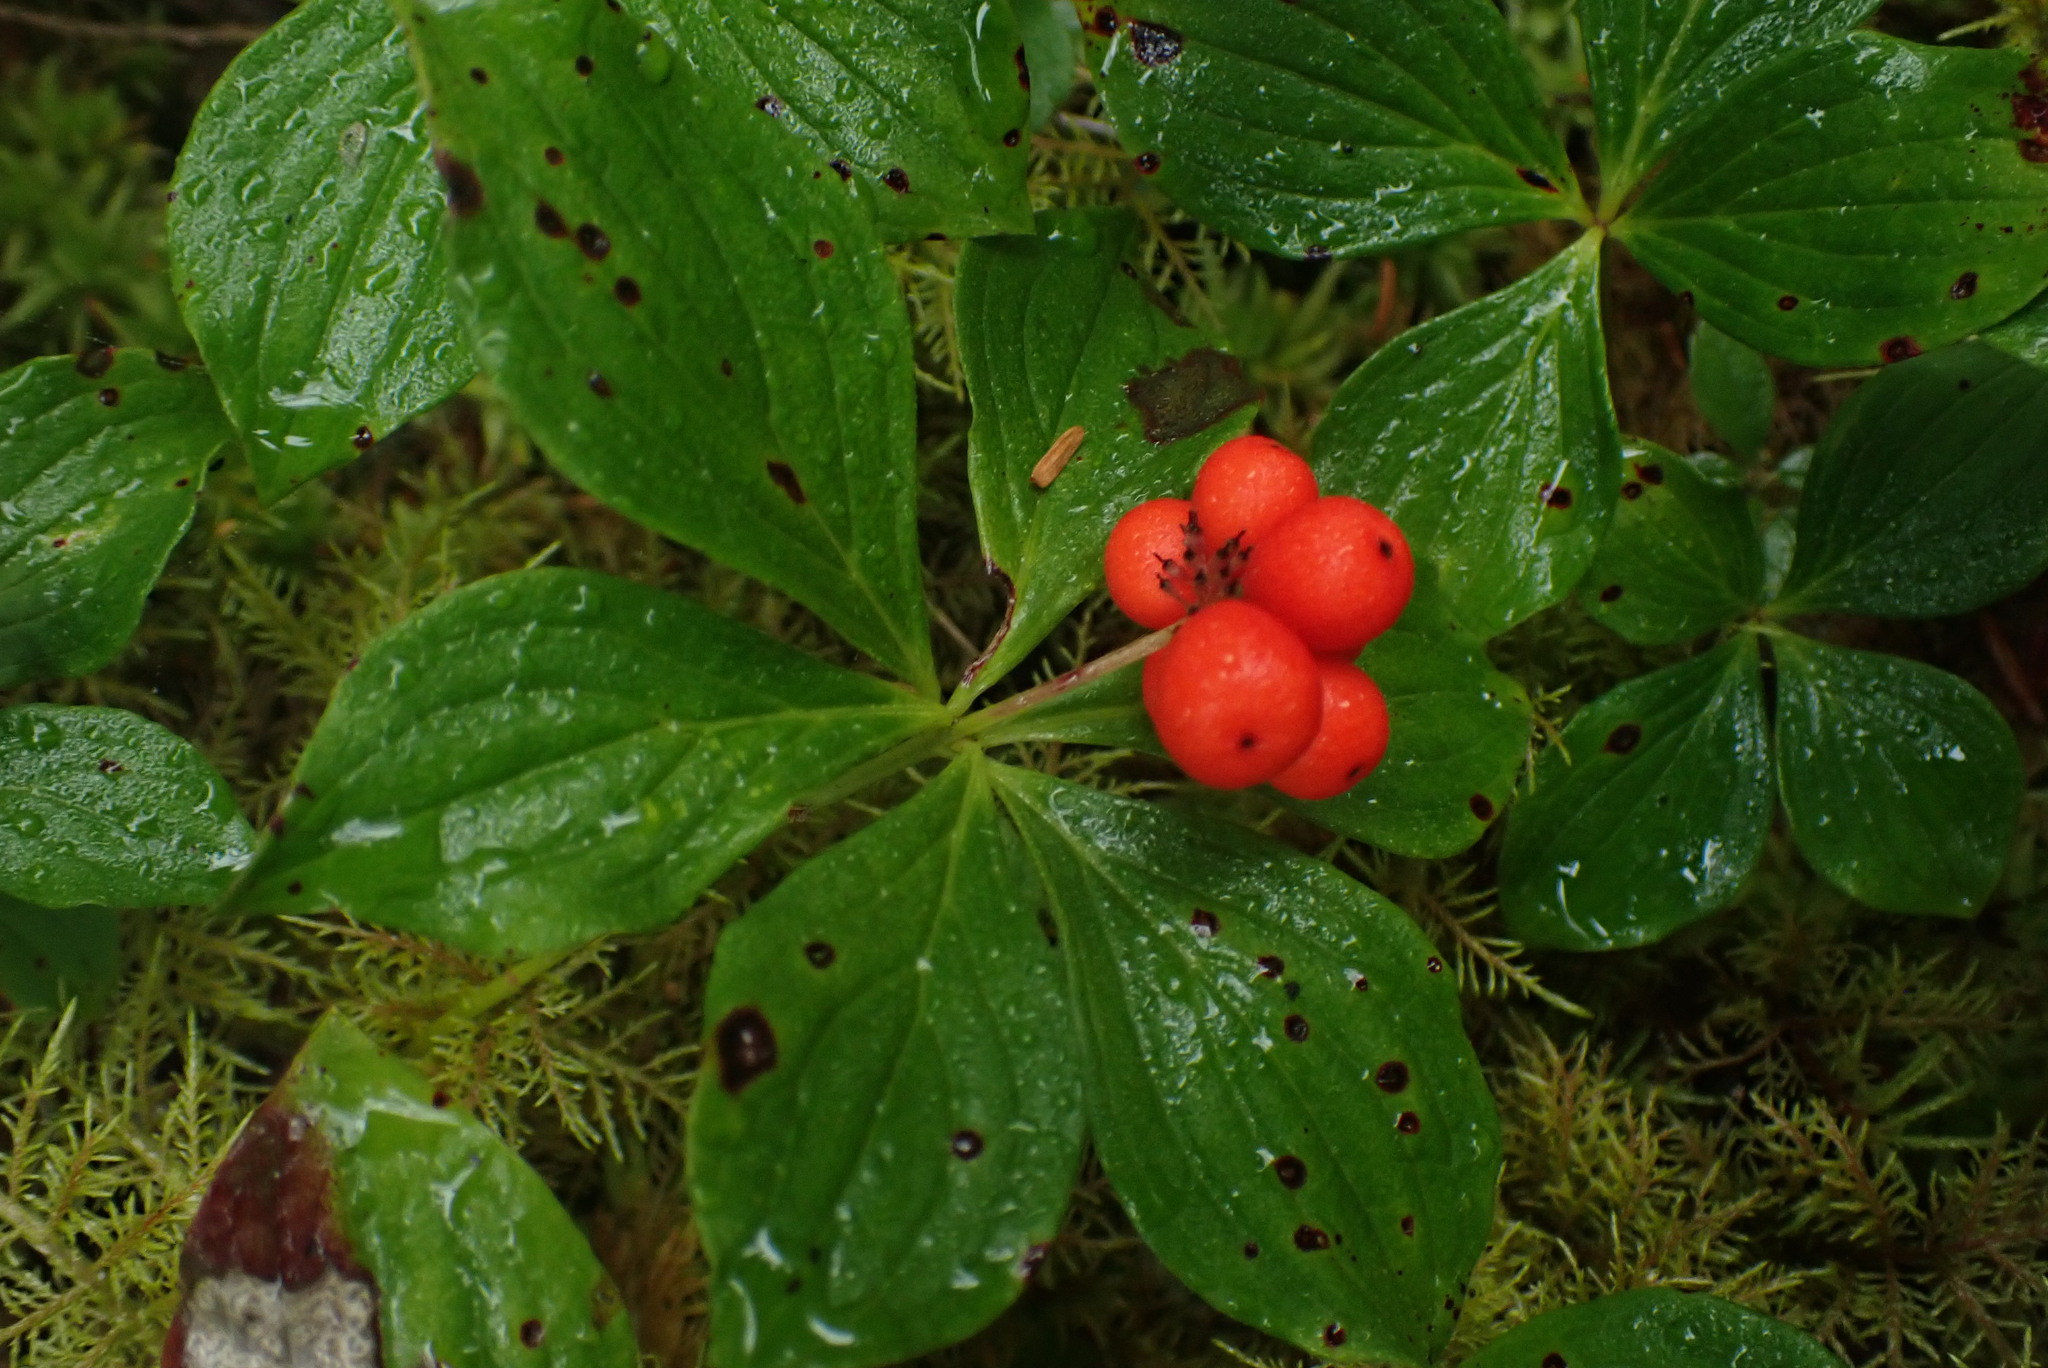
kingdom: Plantae
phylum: Tracheophyta
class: Magnoliopsida
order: Cornales
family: Cornaceae
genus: Cornus
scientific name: Cornus unalaschkensis
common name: Alaska bunchberry
